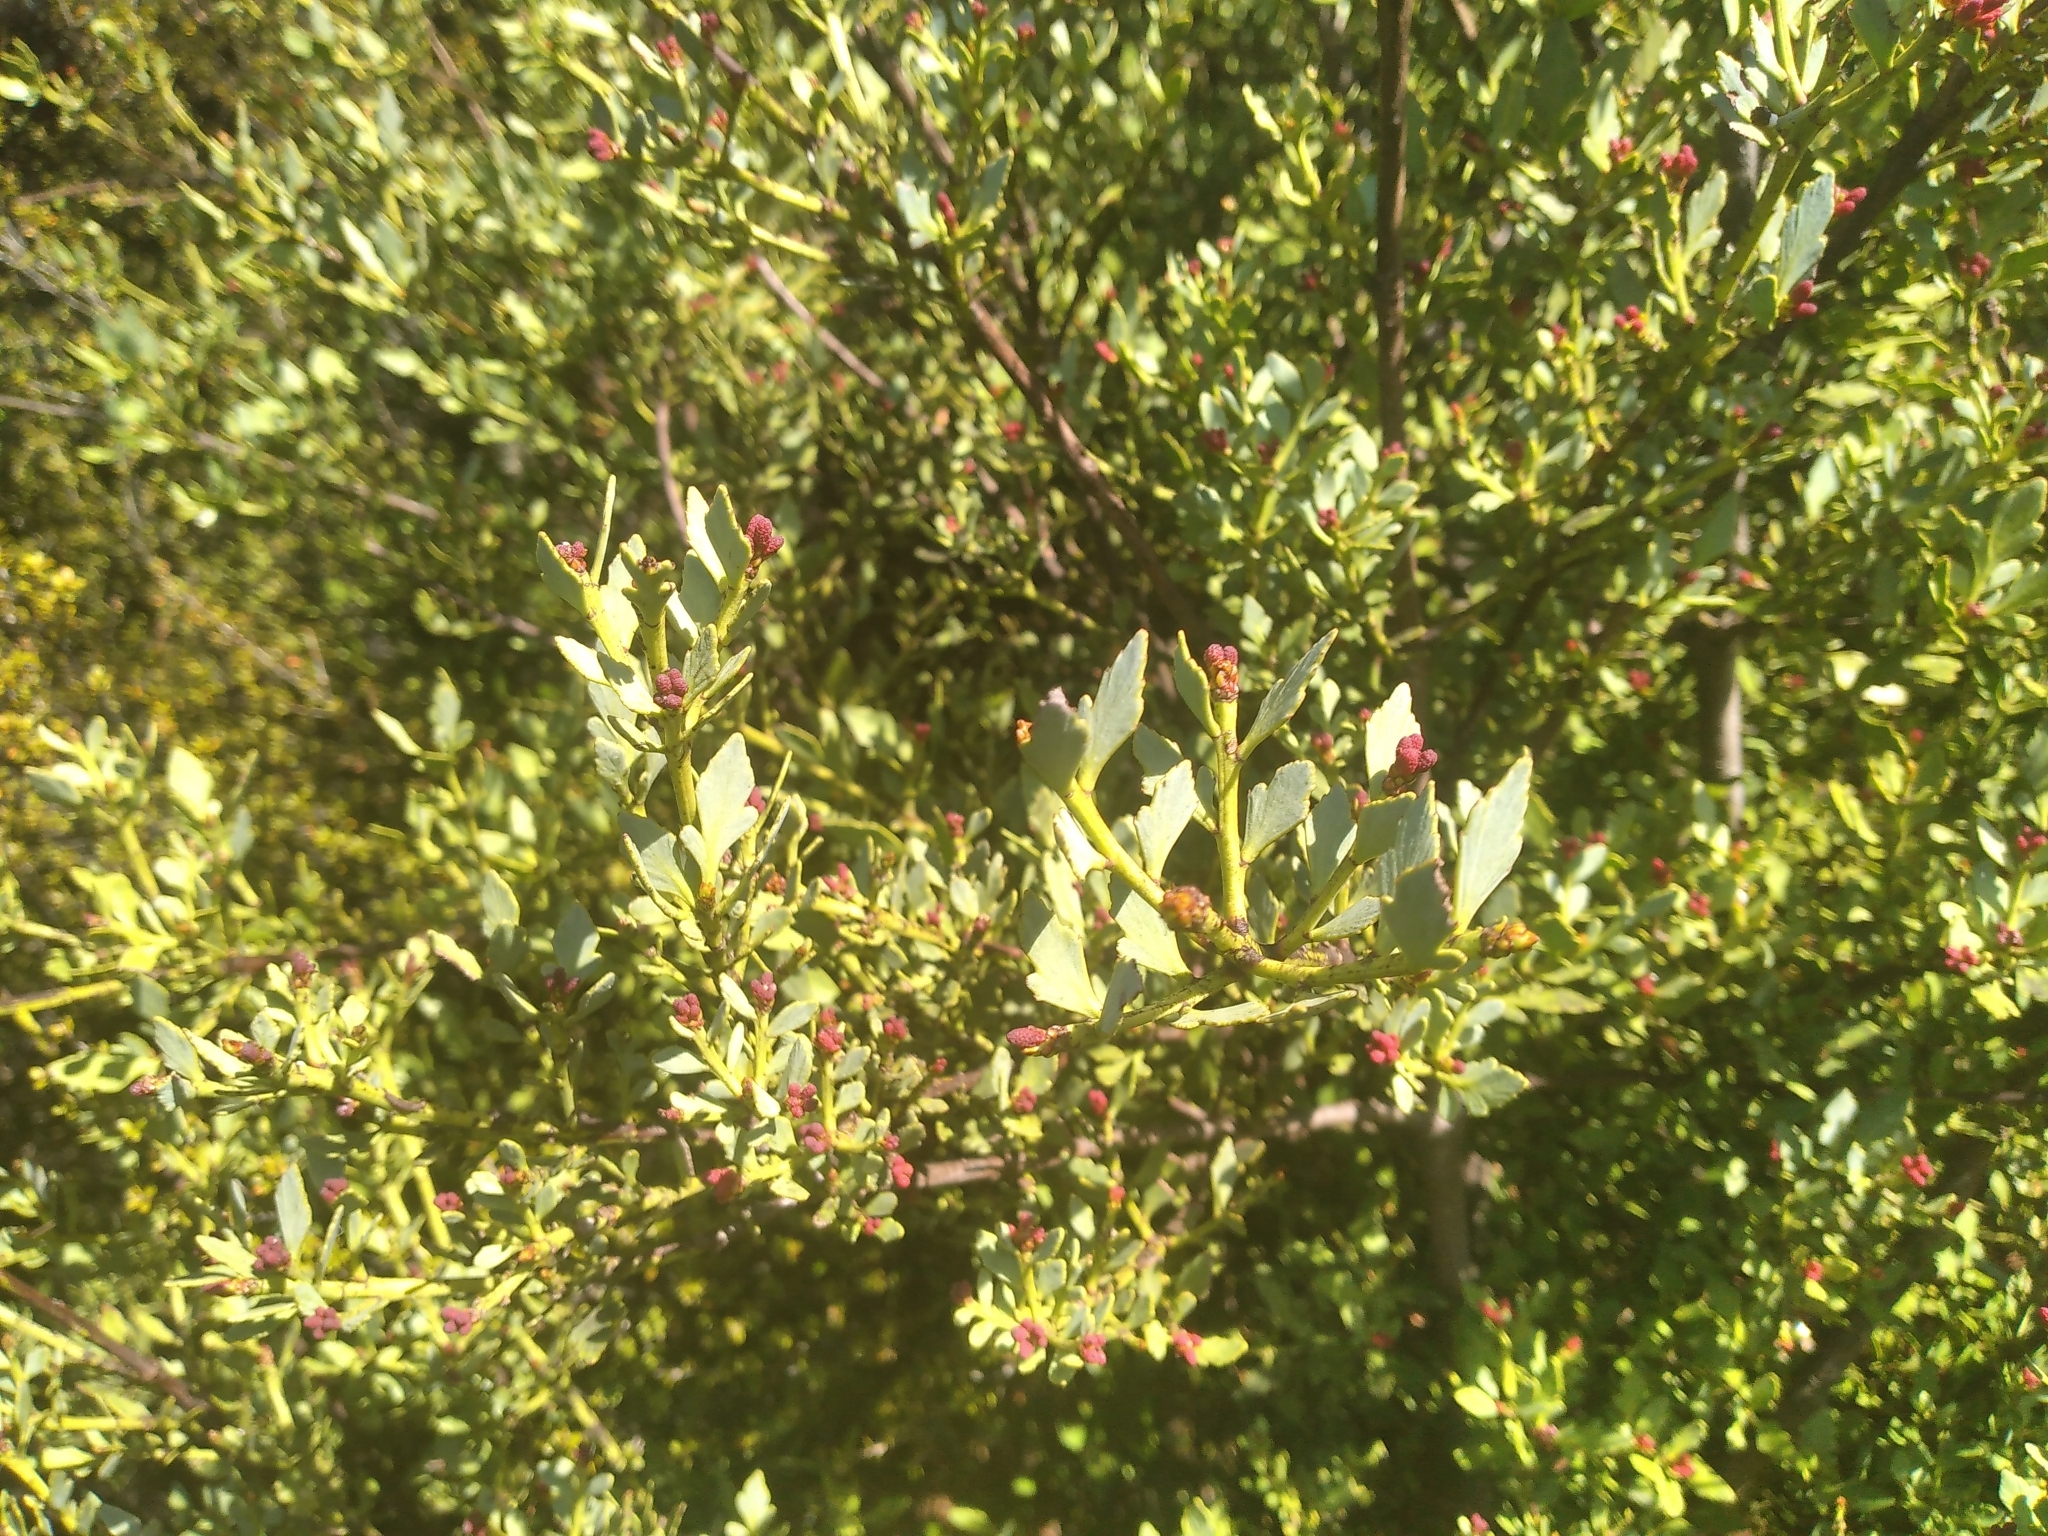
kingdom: Plantae
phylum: Tracheophyta
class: Pinopsida
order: Pinales
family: Phyllocladaceae
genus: Phyllocladus
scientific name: Phyllocladus trichomanoides
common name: Celery pine
